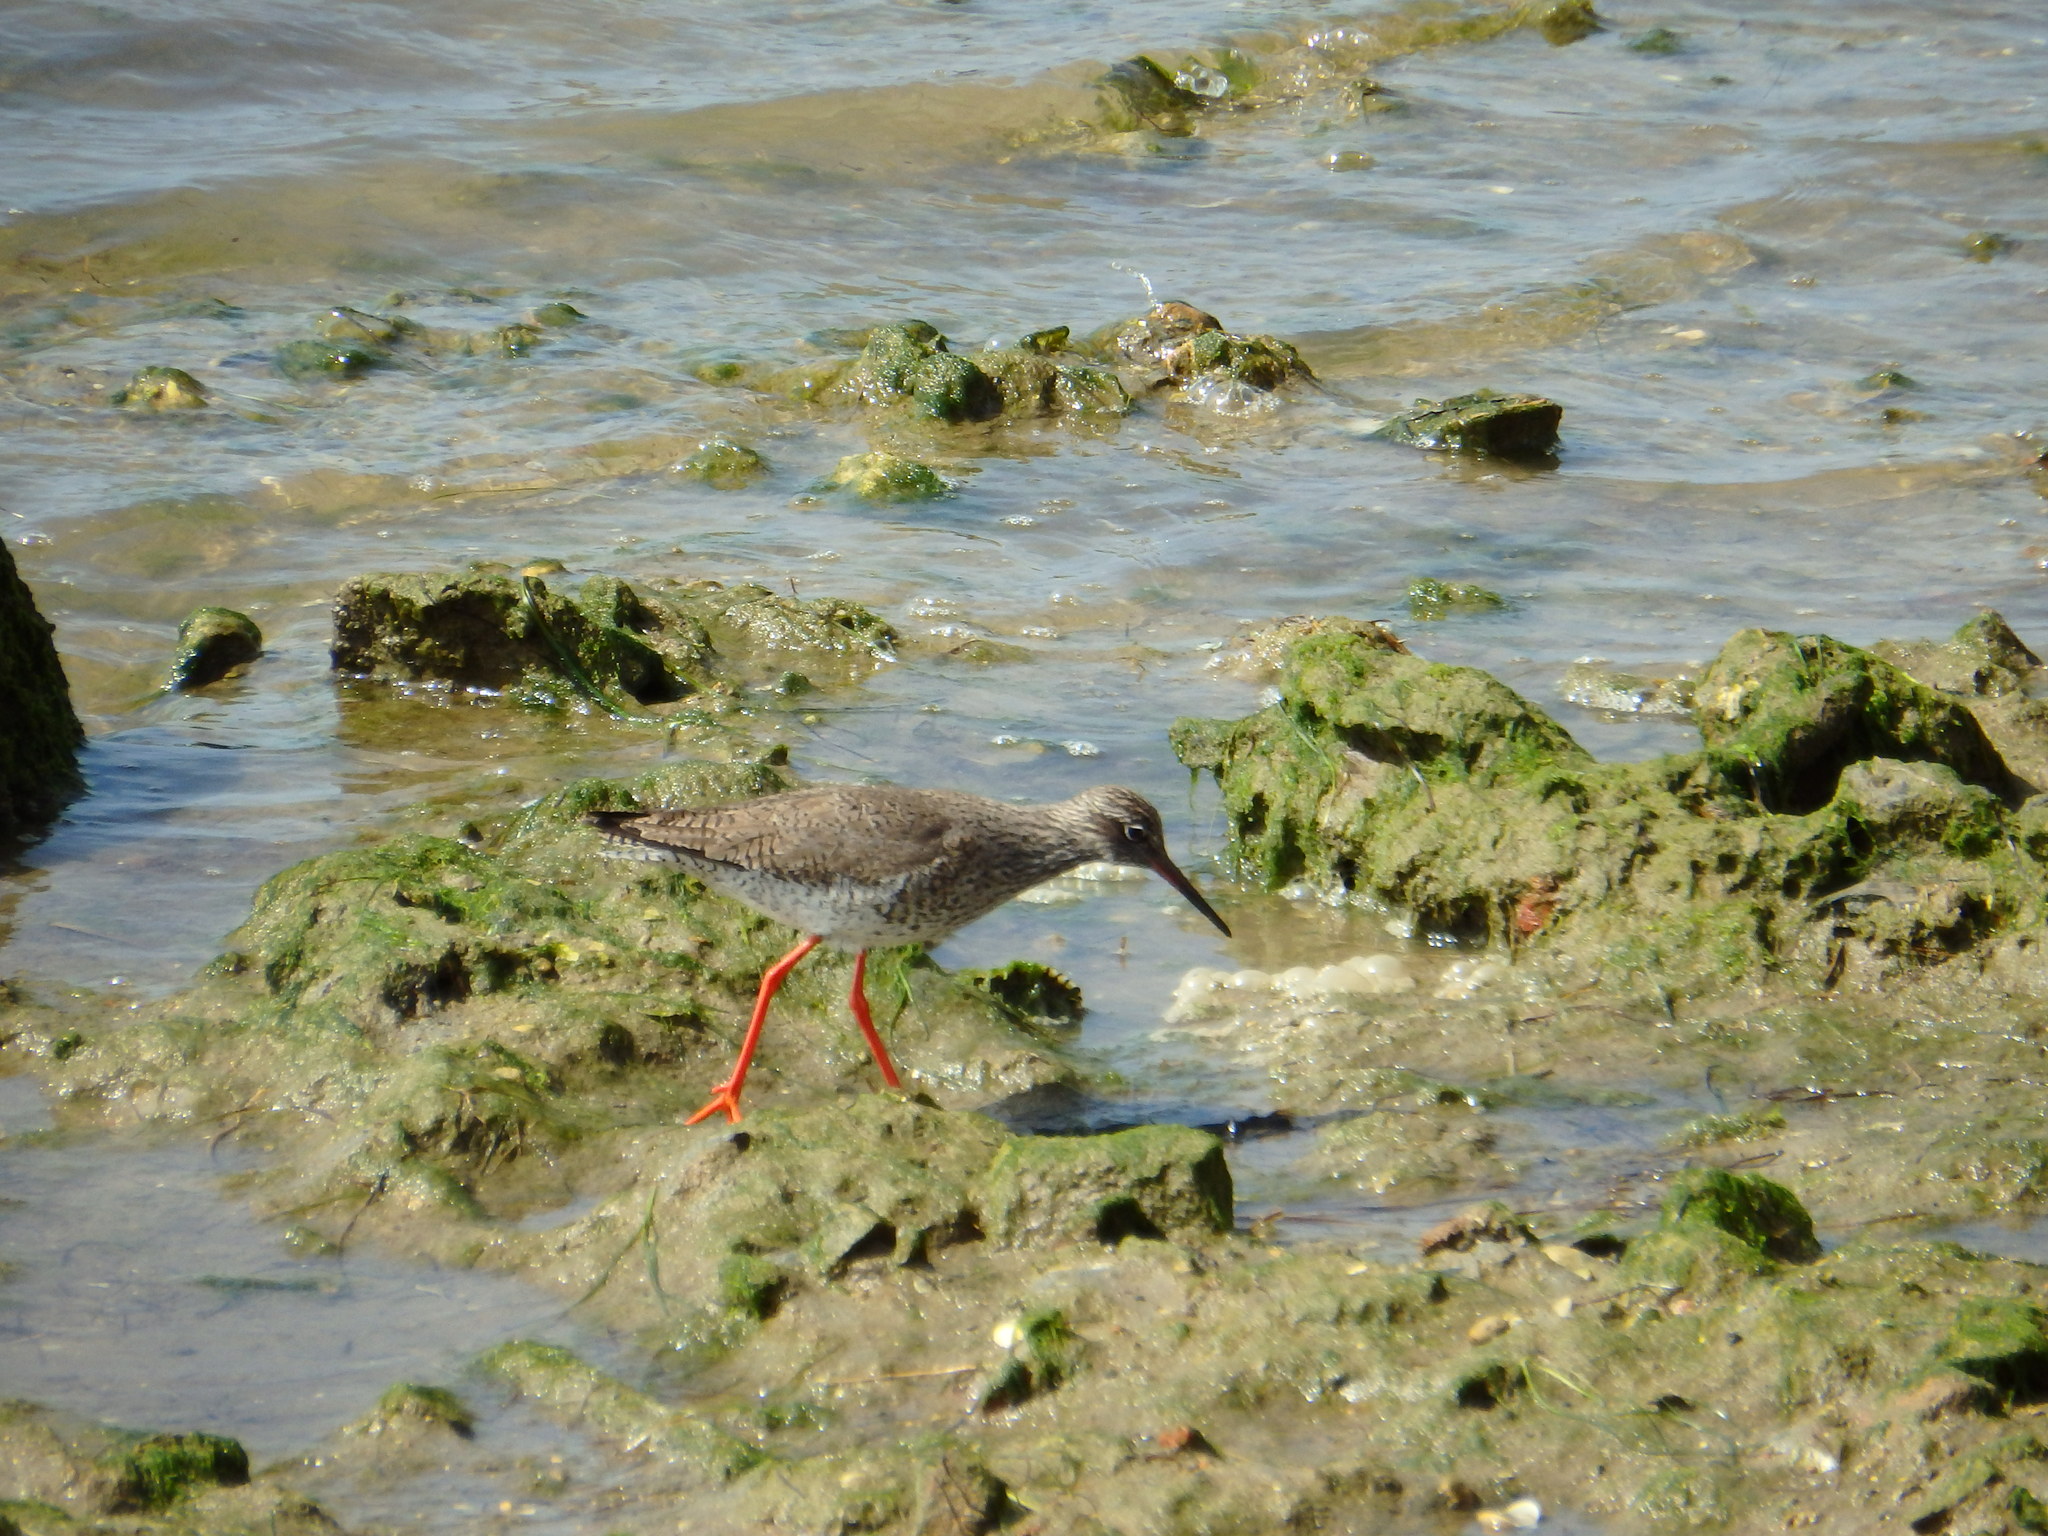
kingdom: Animalia
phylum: Chordata
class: Aves
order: Charadriiformes
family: Scolopacidae
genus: Tringa
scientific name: Tringa totanus
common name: Common redshank
